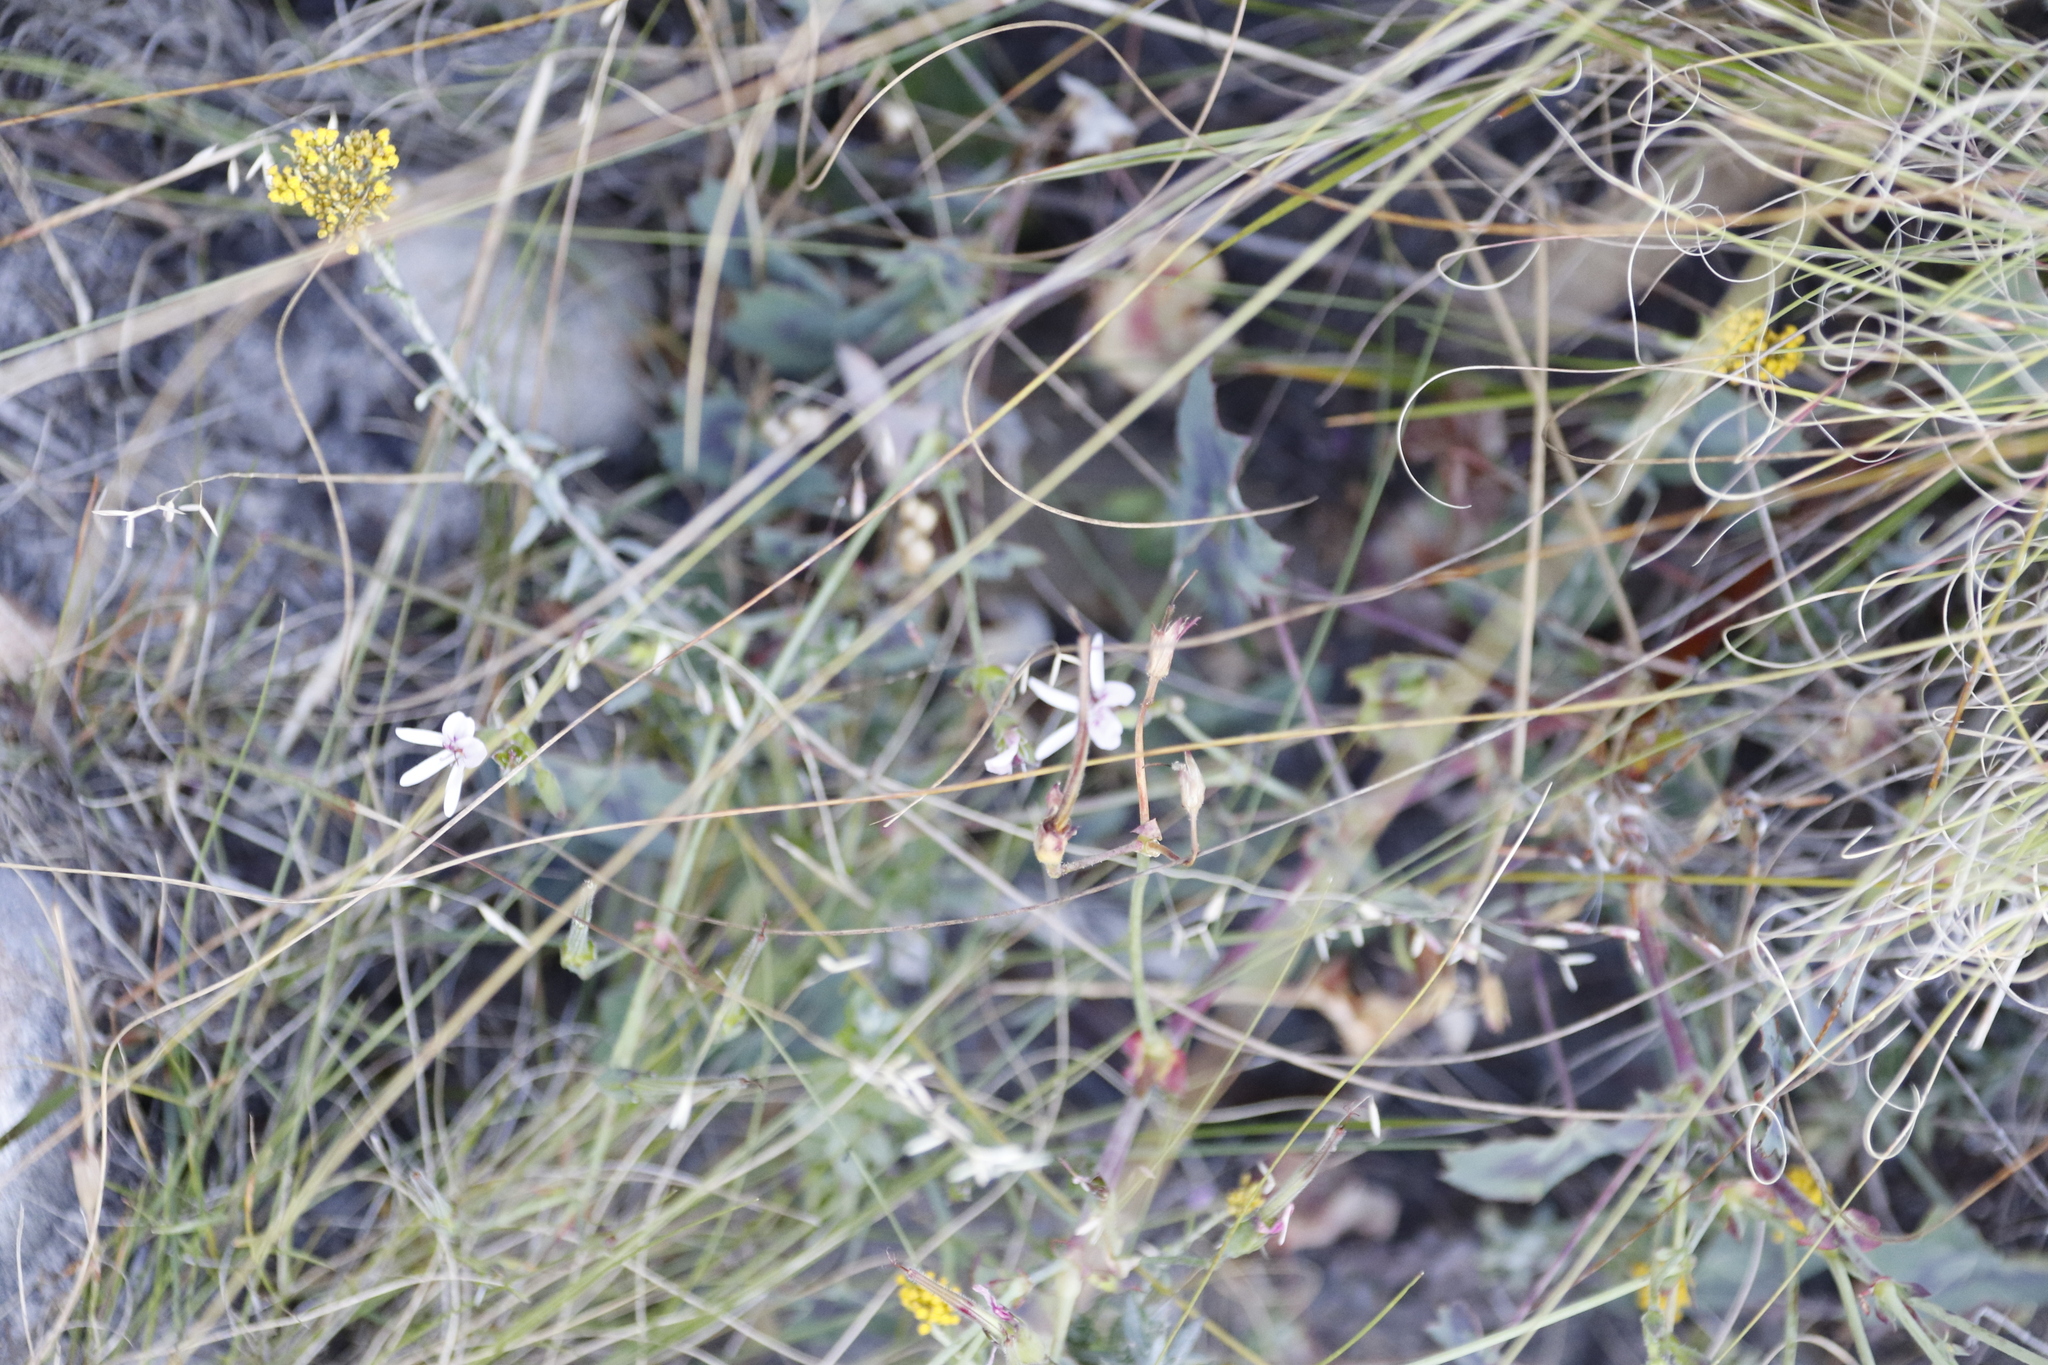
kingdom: Plantae
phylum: Tracheophyta
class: Magnoliopsida
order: Geraniales
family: Geraniaceae
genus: Pelargonium
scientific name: Pelargonium tabulare
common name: Table mountain pelargonium
